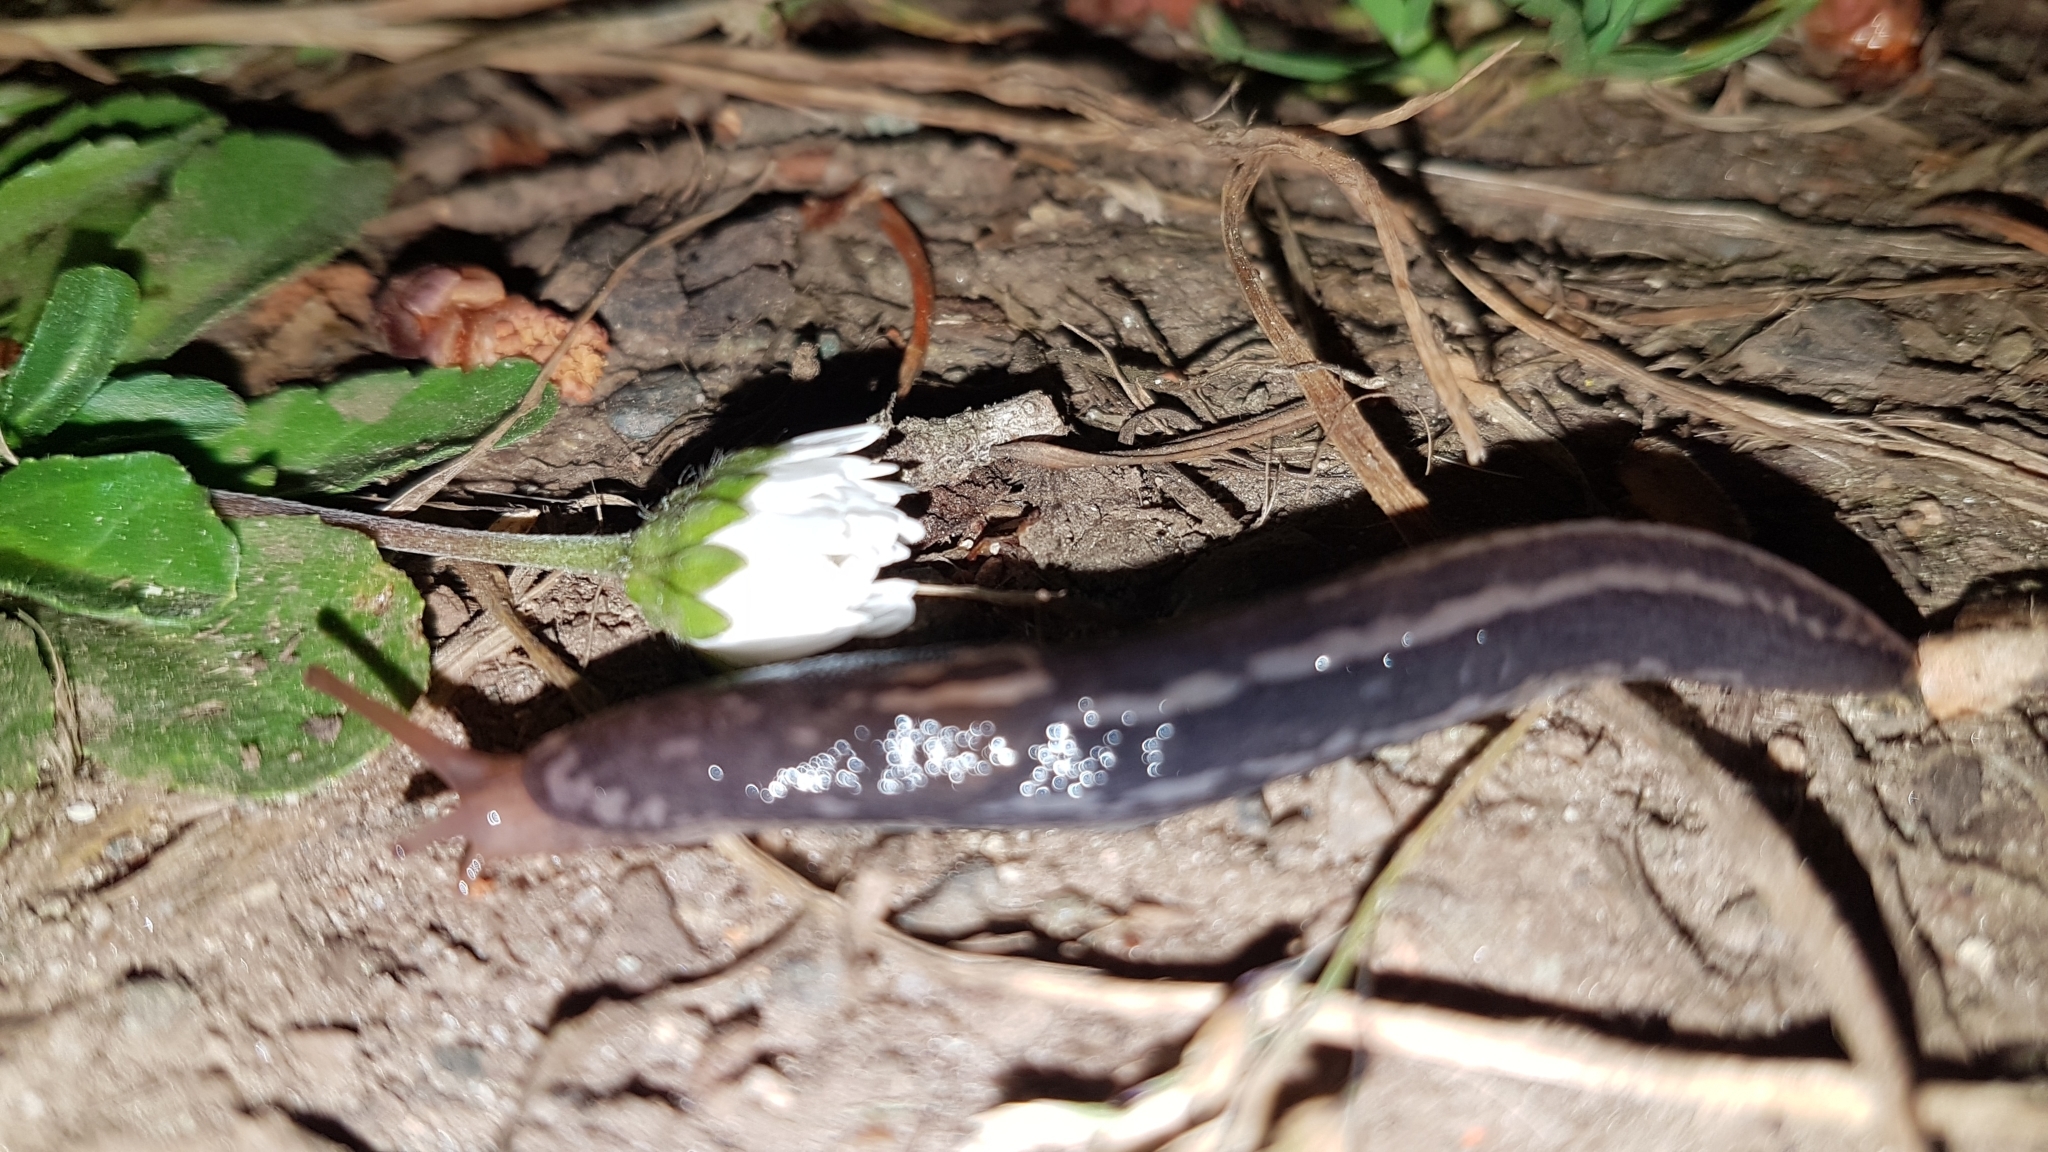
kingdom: Animalia
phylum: Mollusca
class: Gastropoda
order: Stylommatophora
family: Limacidae
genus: Limax
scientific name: Limax maximus
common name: Great grey slug
